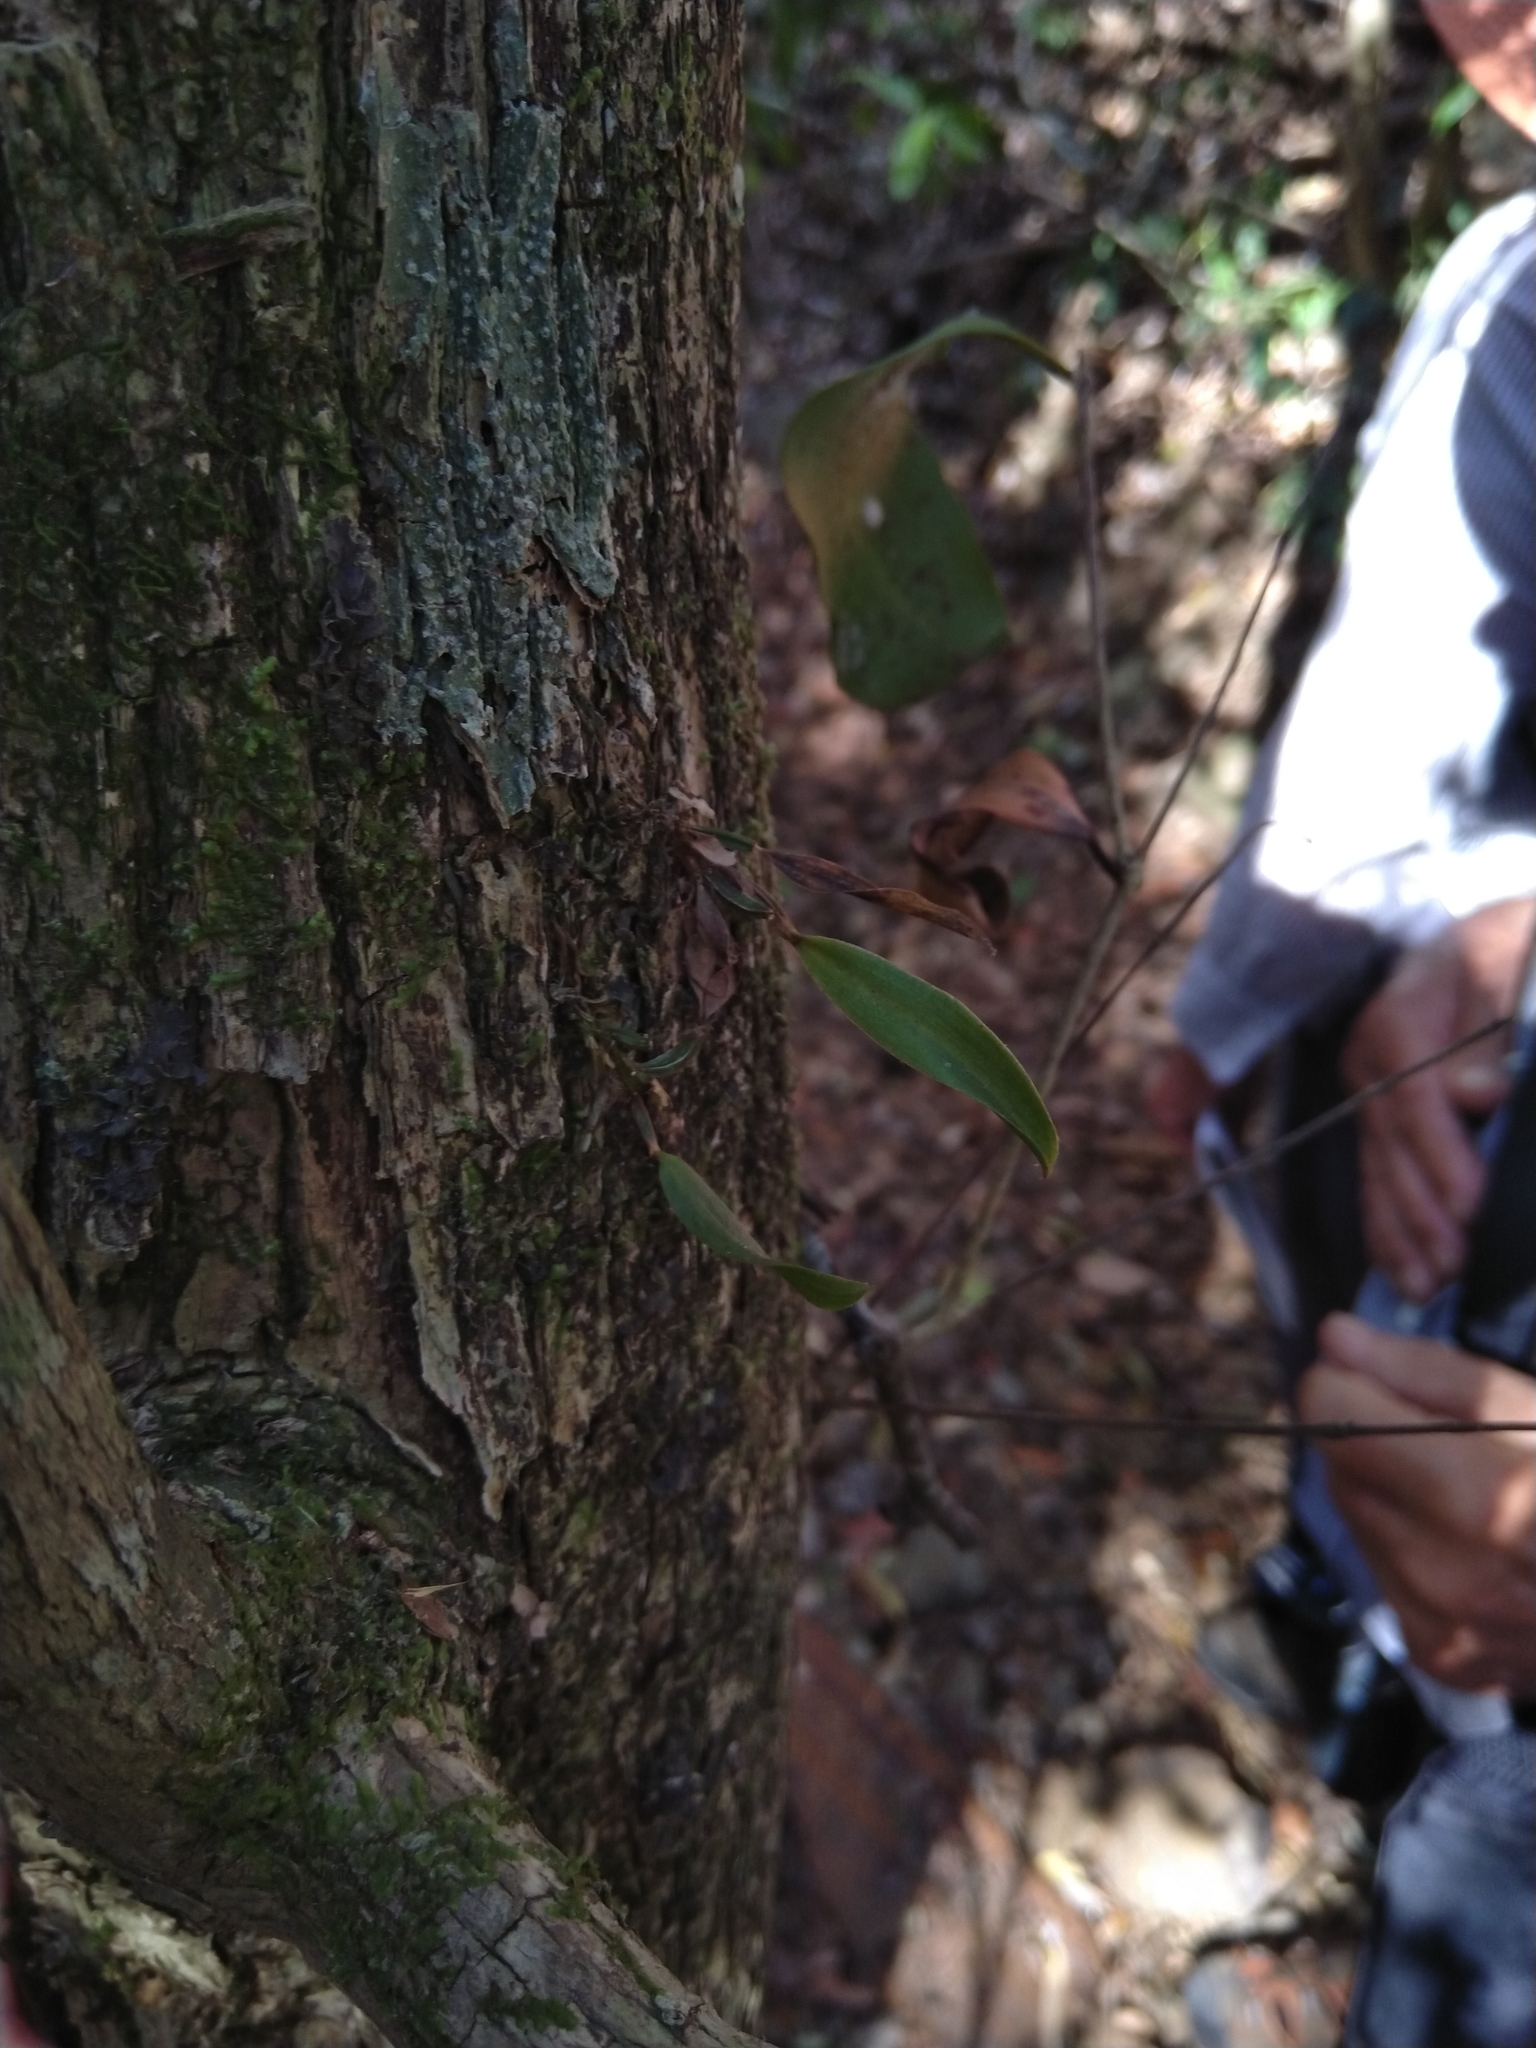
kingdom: Plantae
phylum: Tracheophyta
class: Liliopsida
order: Asparagales
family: Orchidaceae
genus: Dendrobium
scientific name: Dendrobium tetragonum
